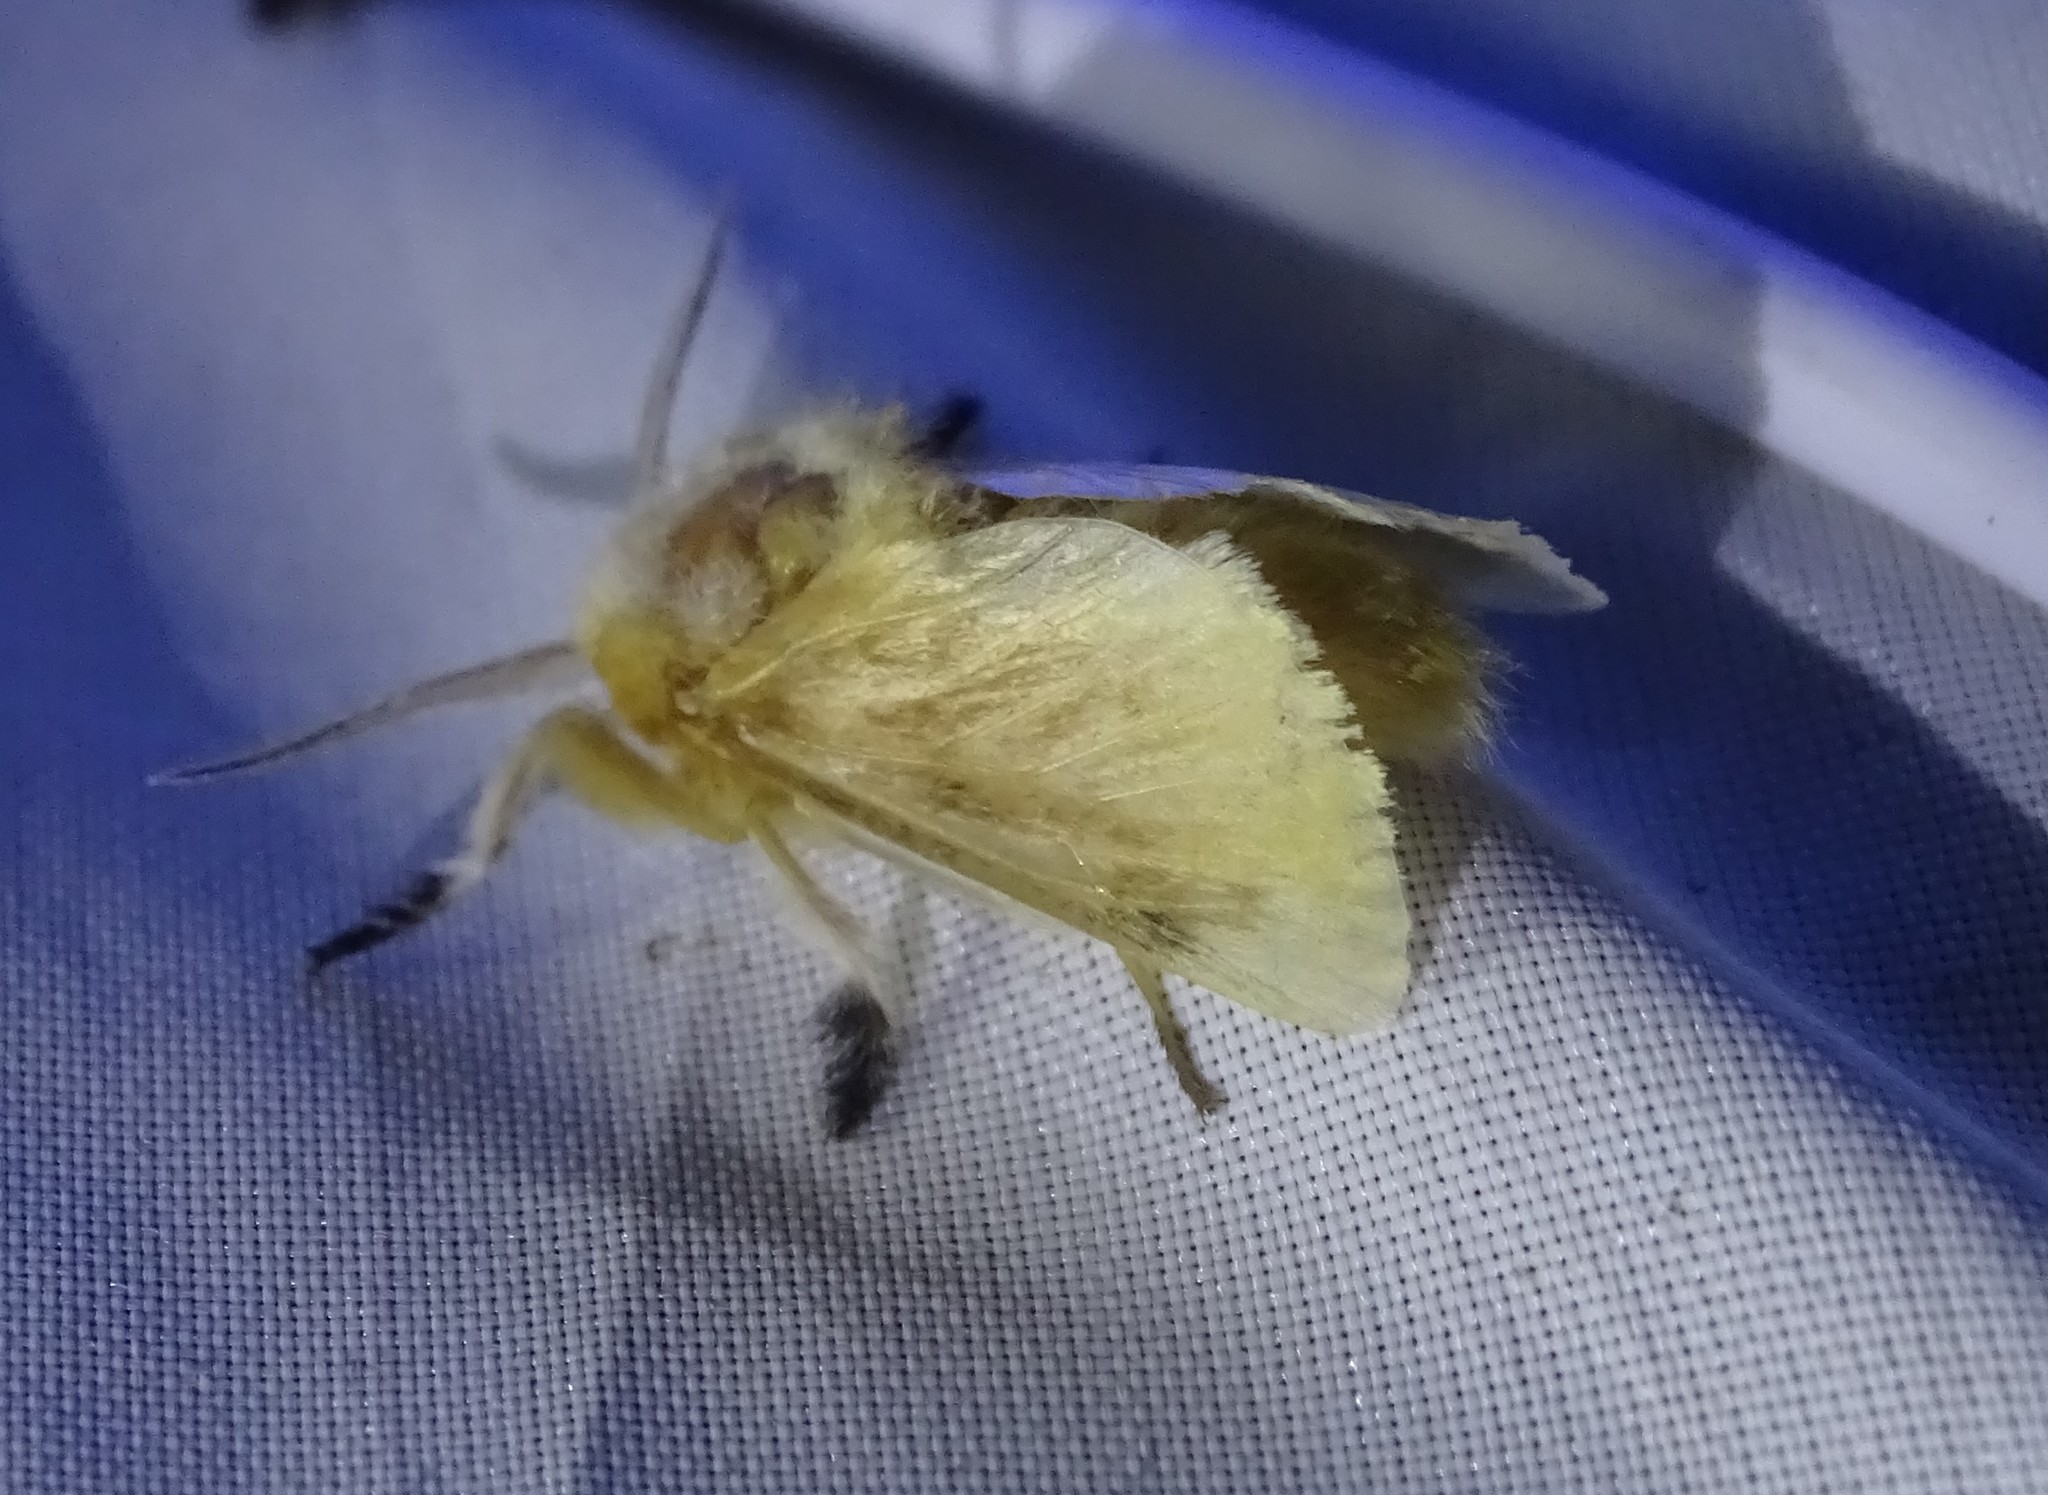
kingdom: Animalia
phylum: Arthropoda
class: Insecta
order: Lepidoptera
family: Megalopygidae
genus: Megalopyge
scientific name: Megalopyge opercularis
